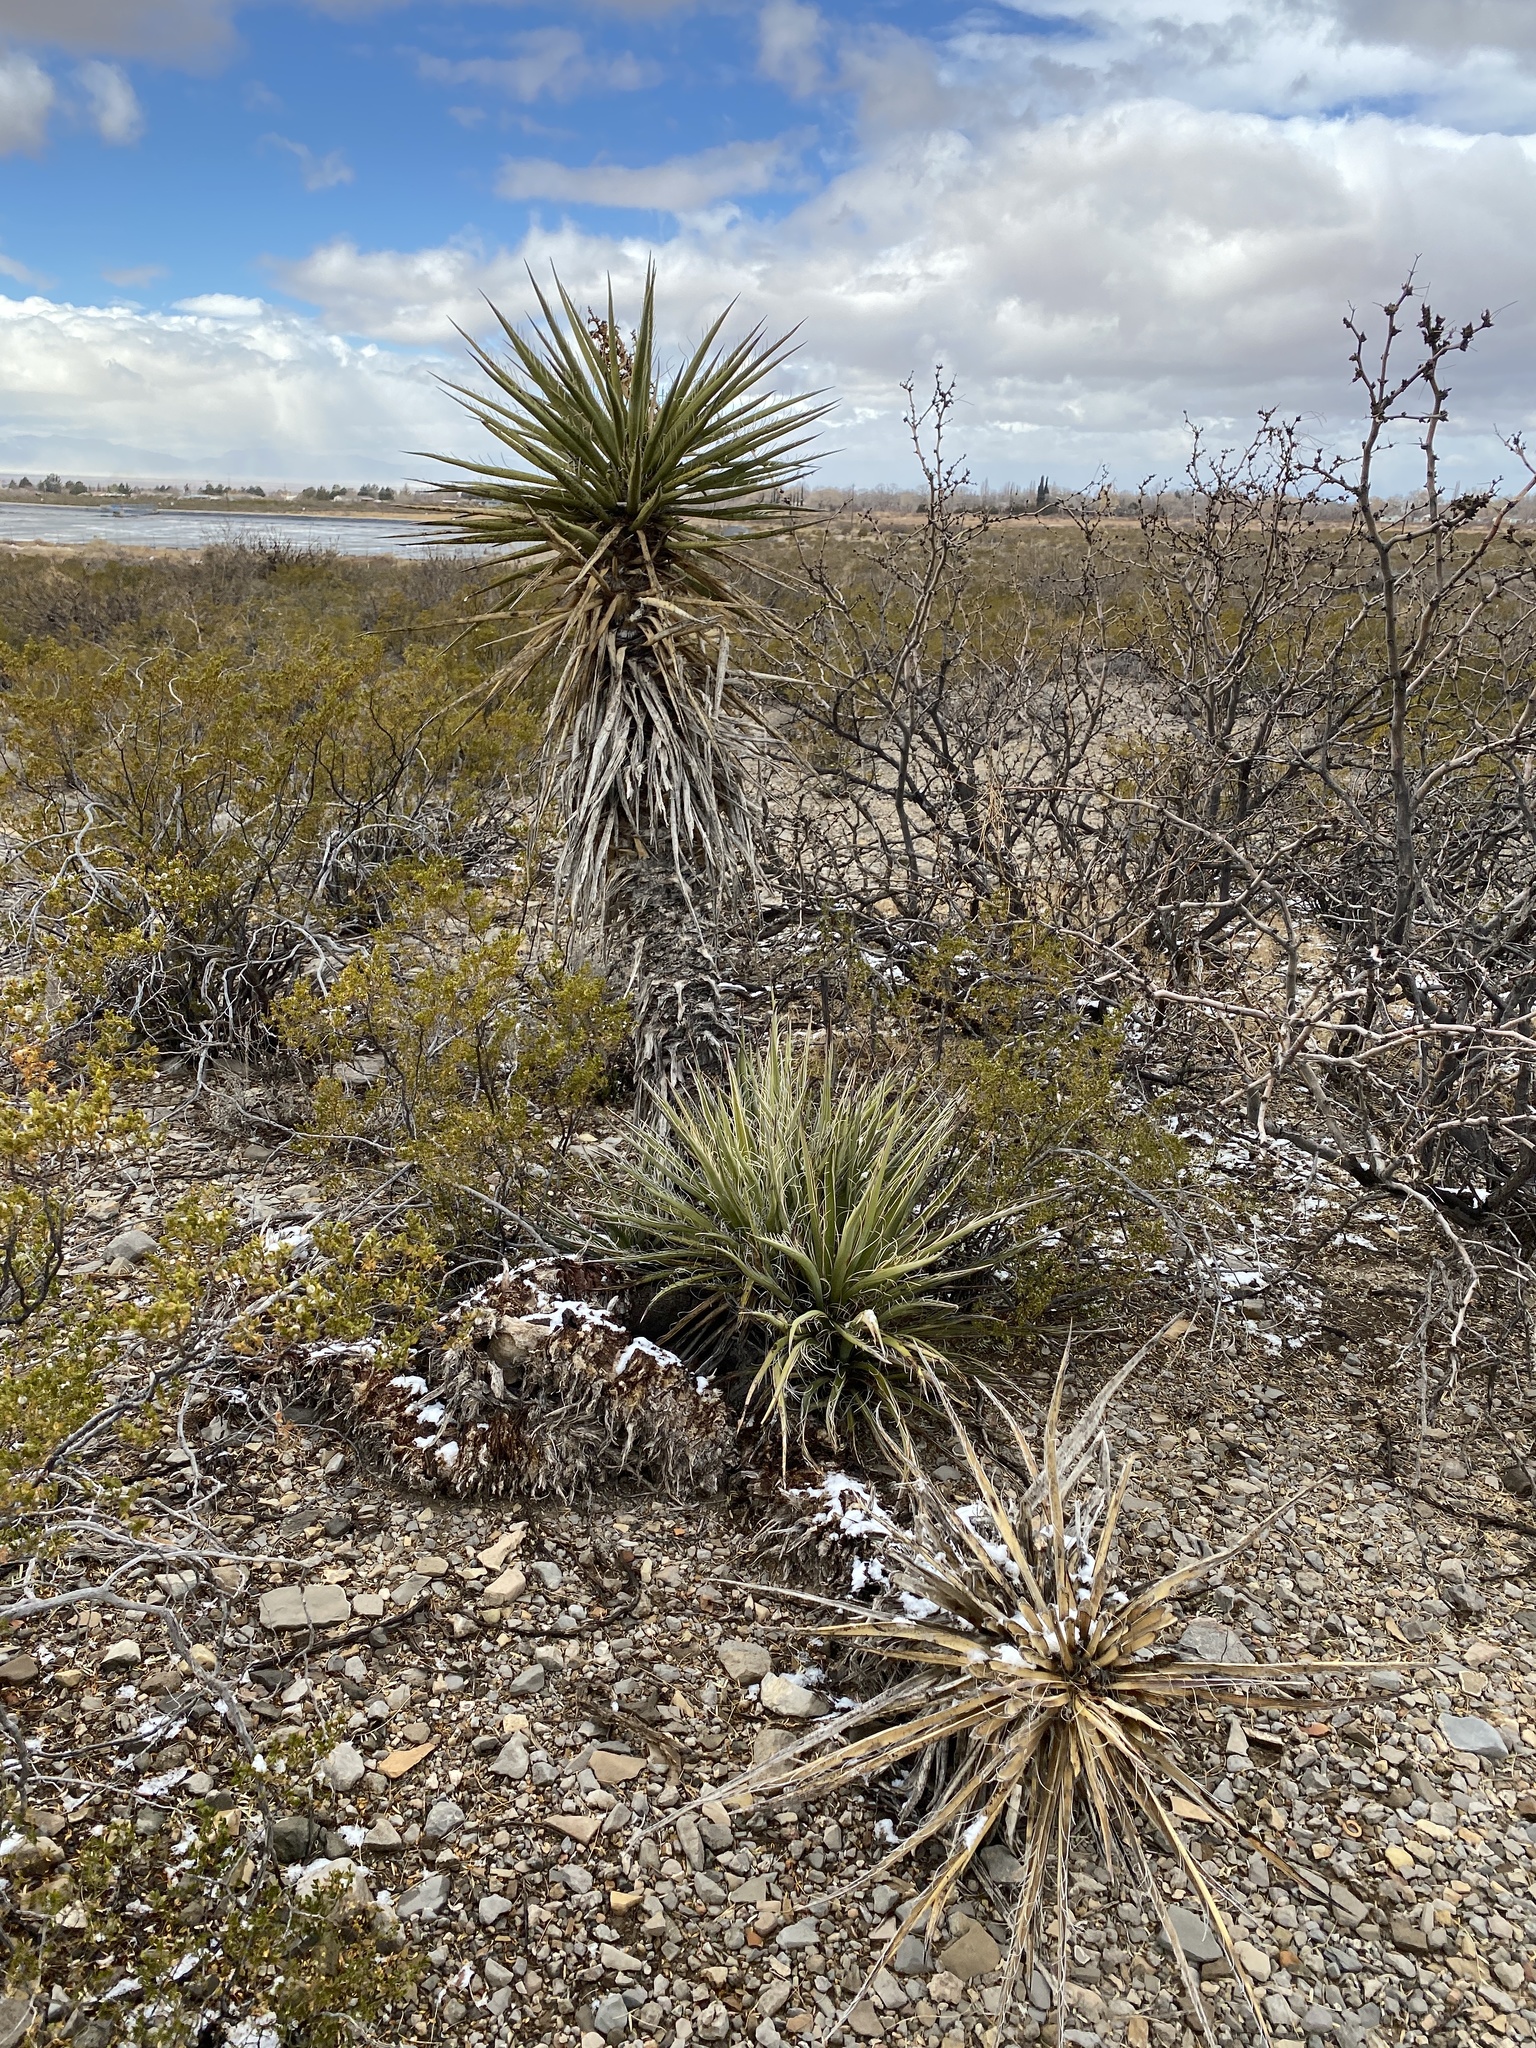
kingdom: Plantae
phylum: Tracheophyta
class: Liliopsida
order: Asparagales
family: Asparagaceae
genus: Yucca
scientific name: Yucca treculiana
